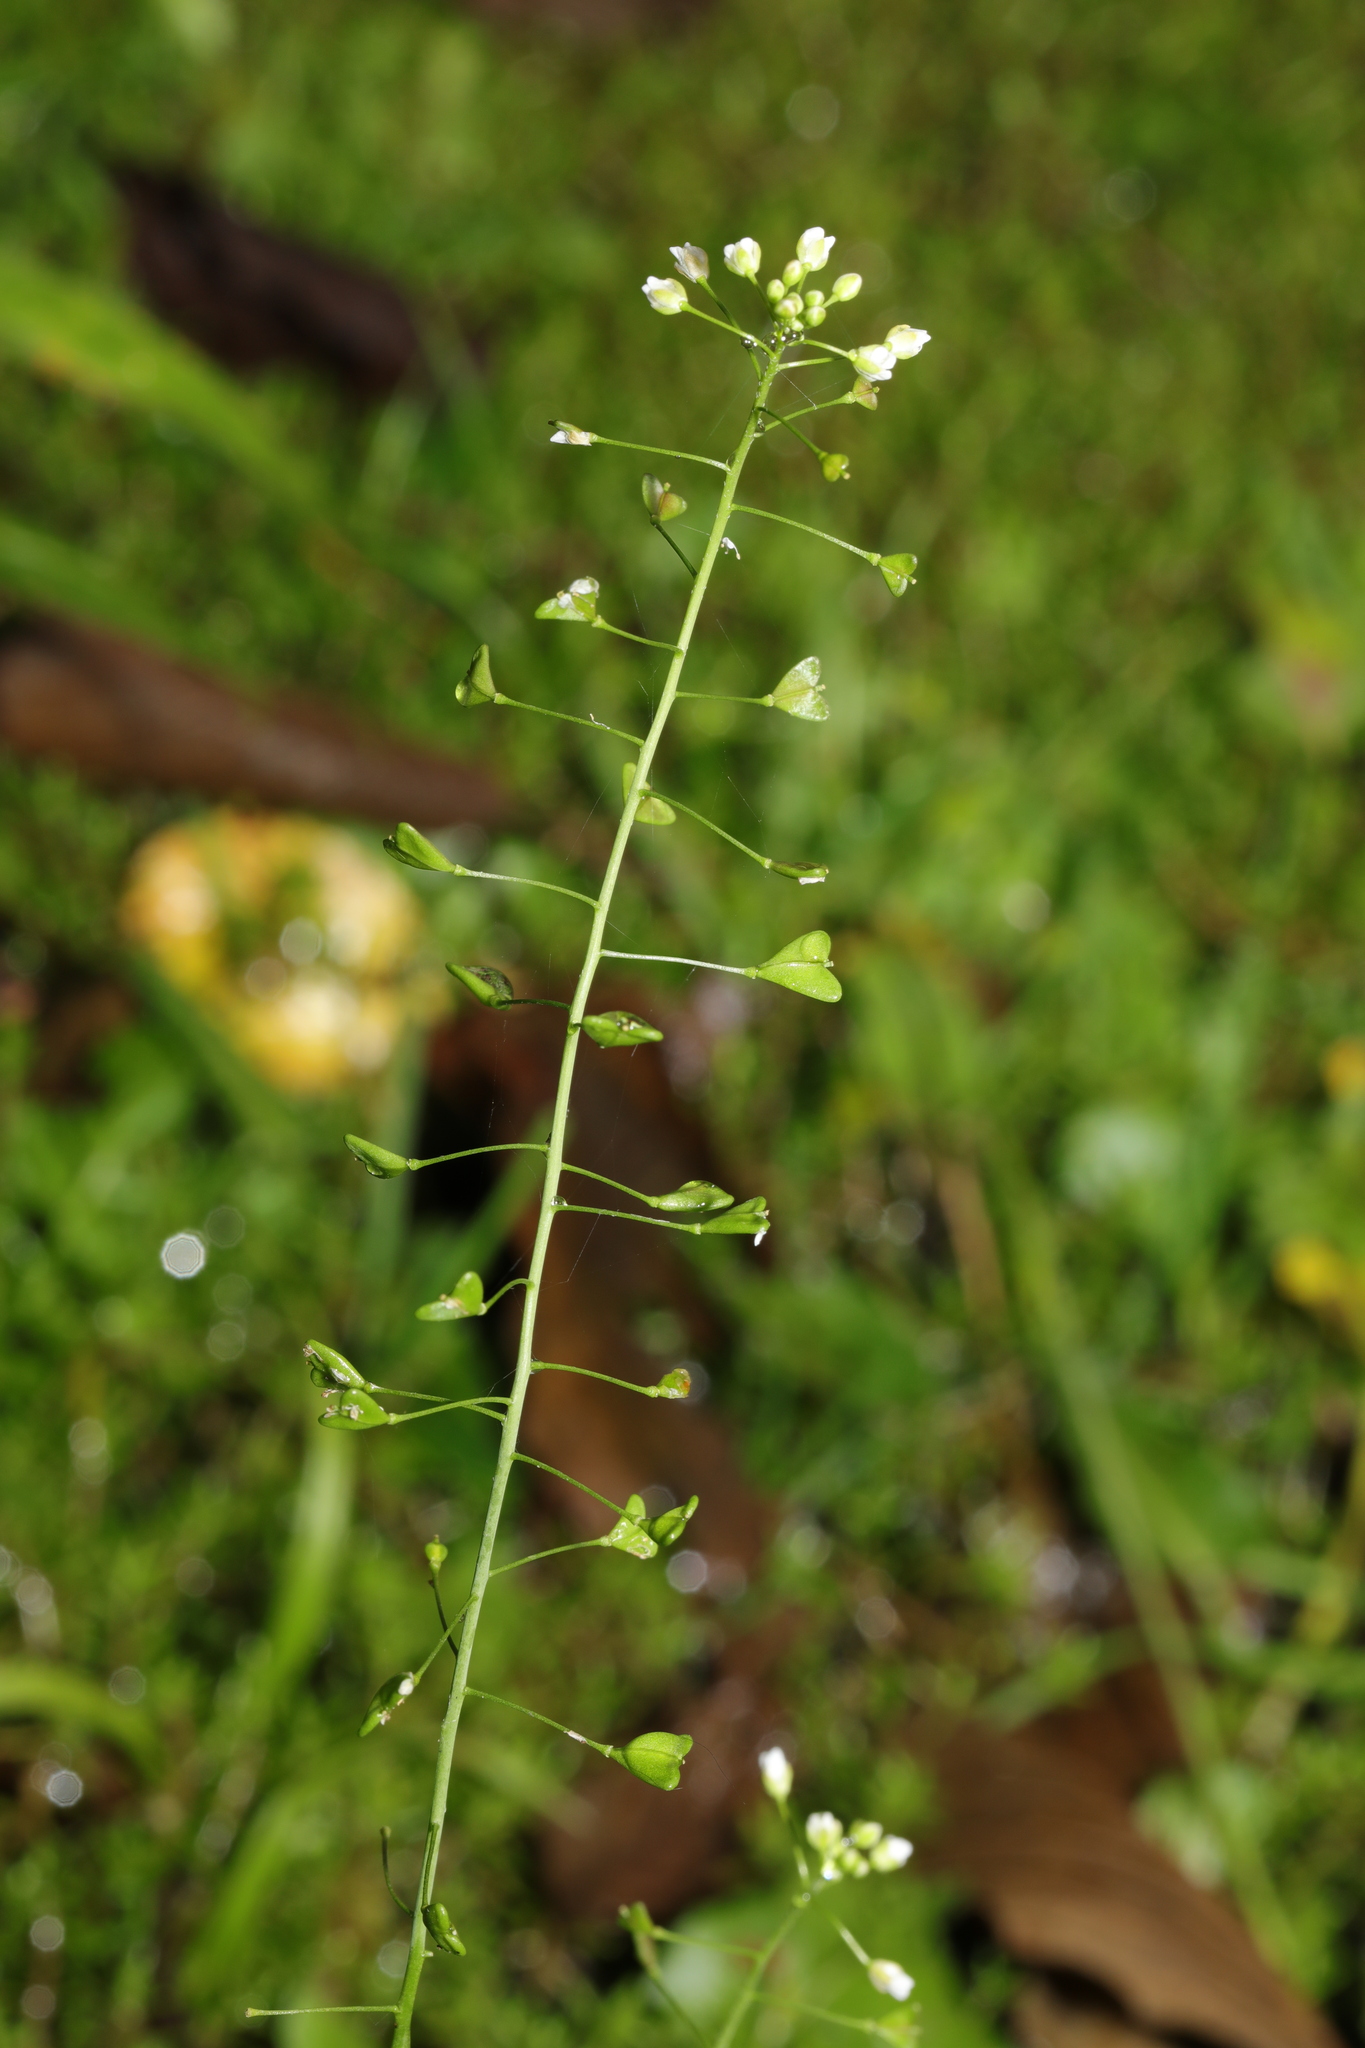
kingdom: Plantae
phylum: Tracheophyta
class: Magnoliopsida
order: Brassicales
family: Brassicaceae
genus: Capsella
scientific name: Capsella bursa-pastoris
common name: Shepherd's purse
